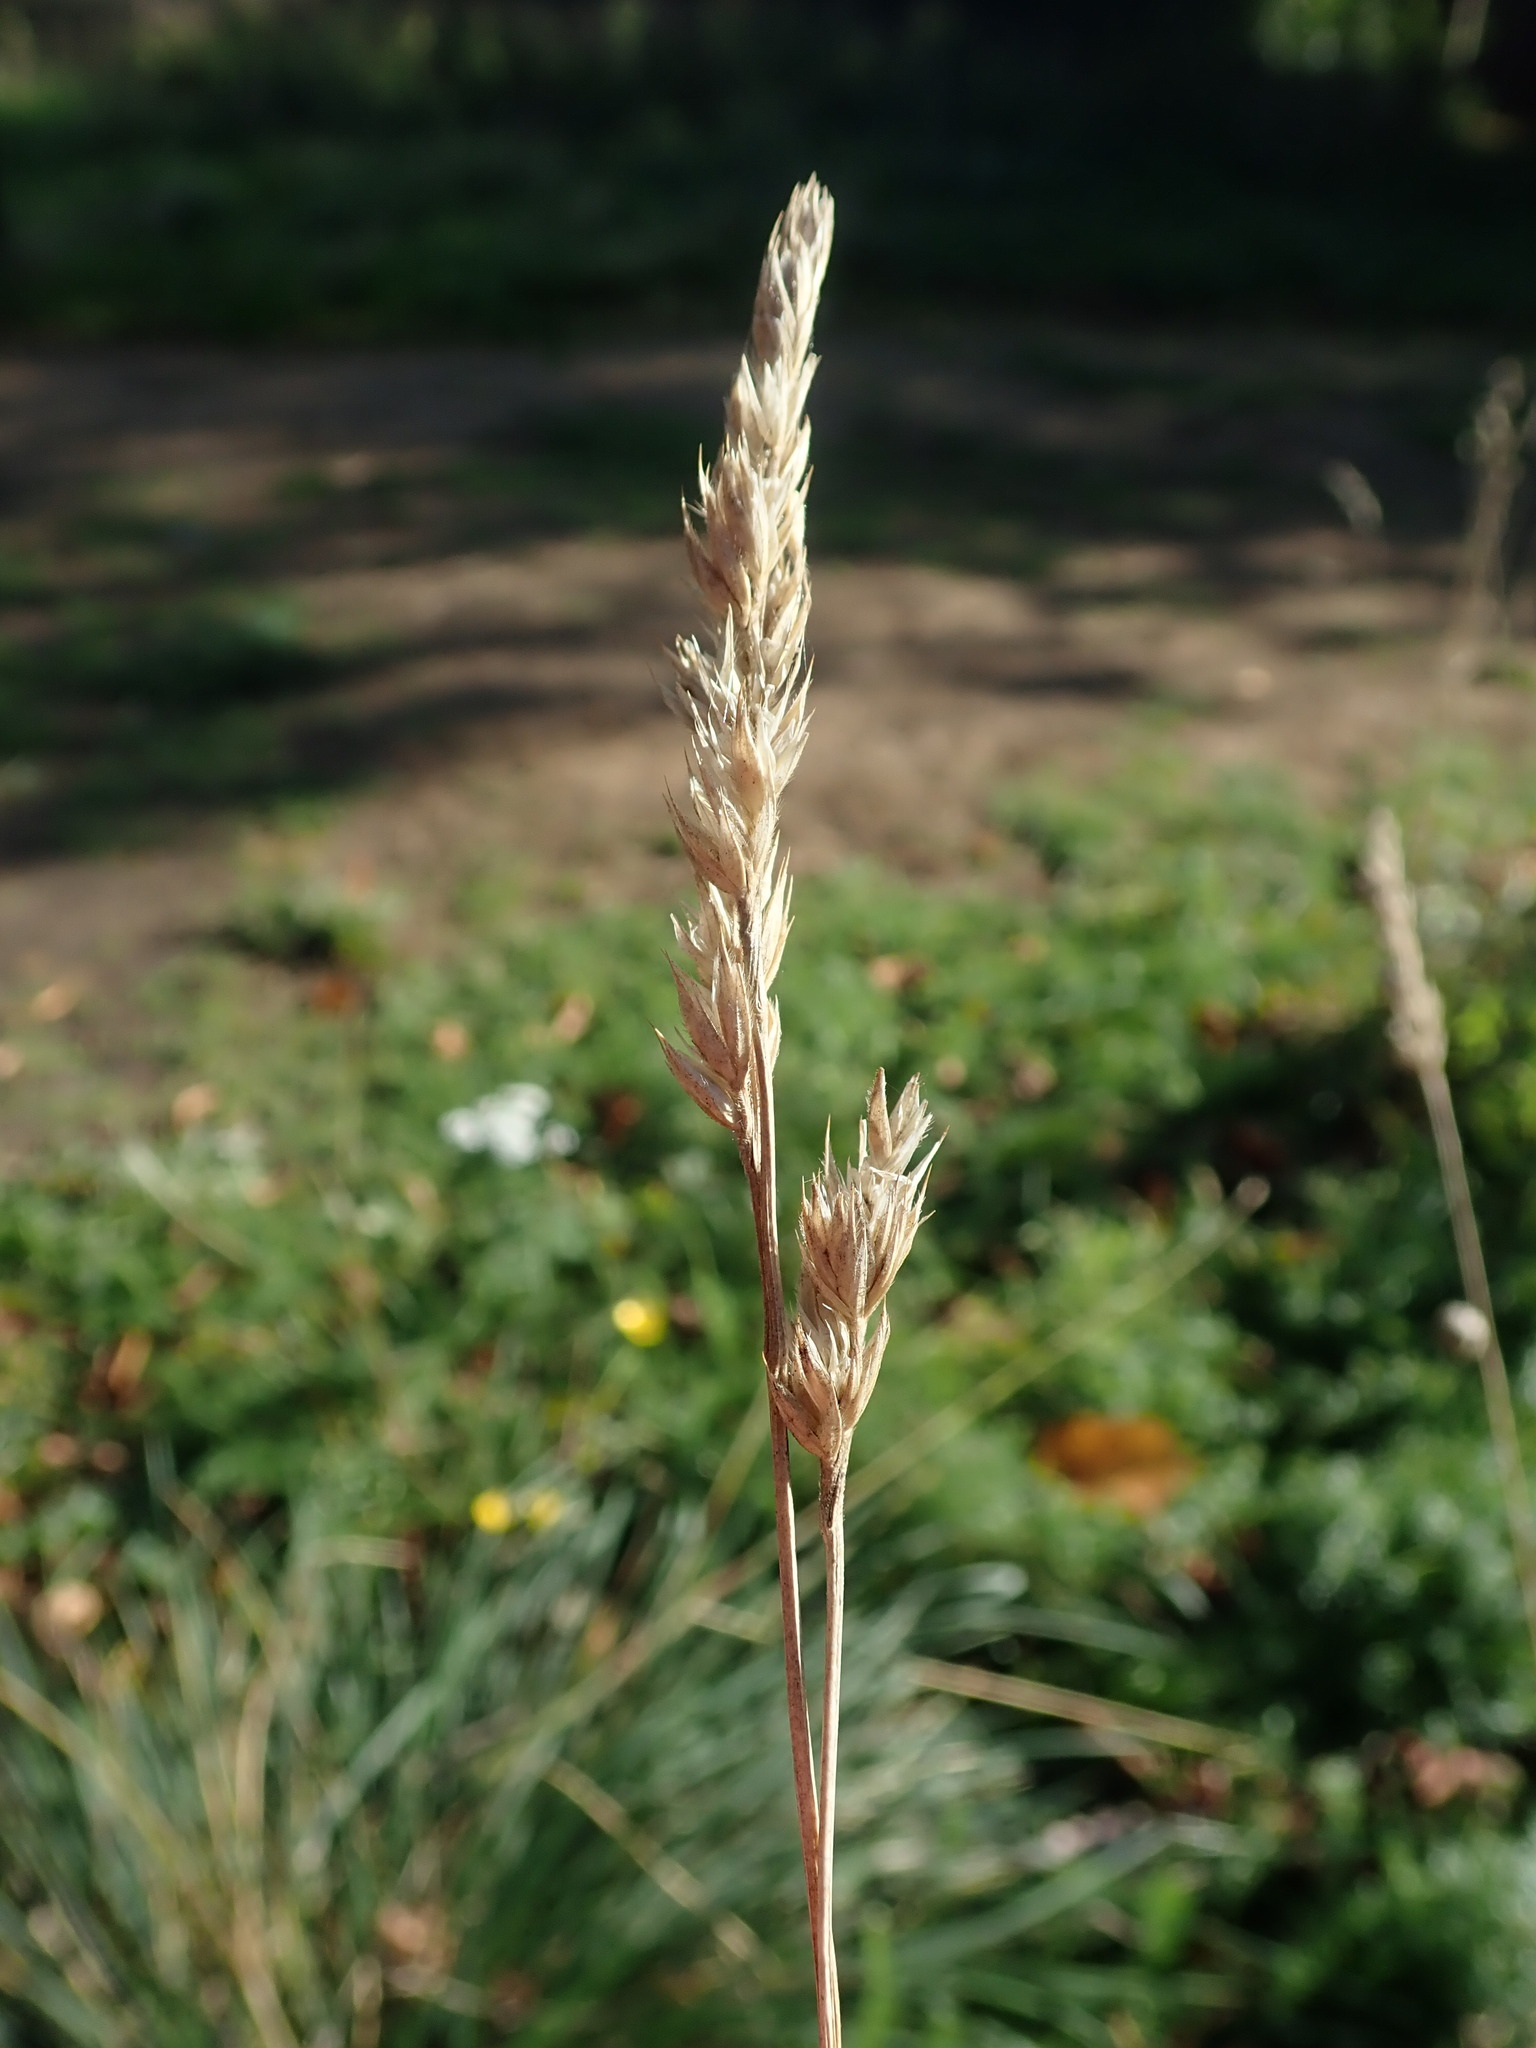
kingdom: Plantae
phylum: Tracheophyta
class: Liliopsida
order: Poales
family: Poaceae
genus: Dactylis
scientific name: Dactylis glomerata
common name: Orchardgrass
